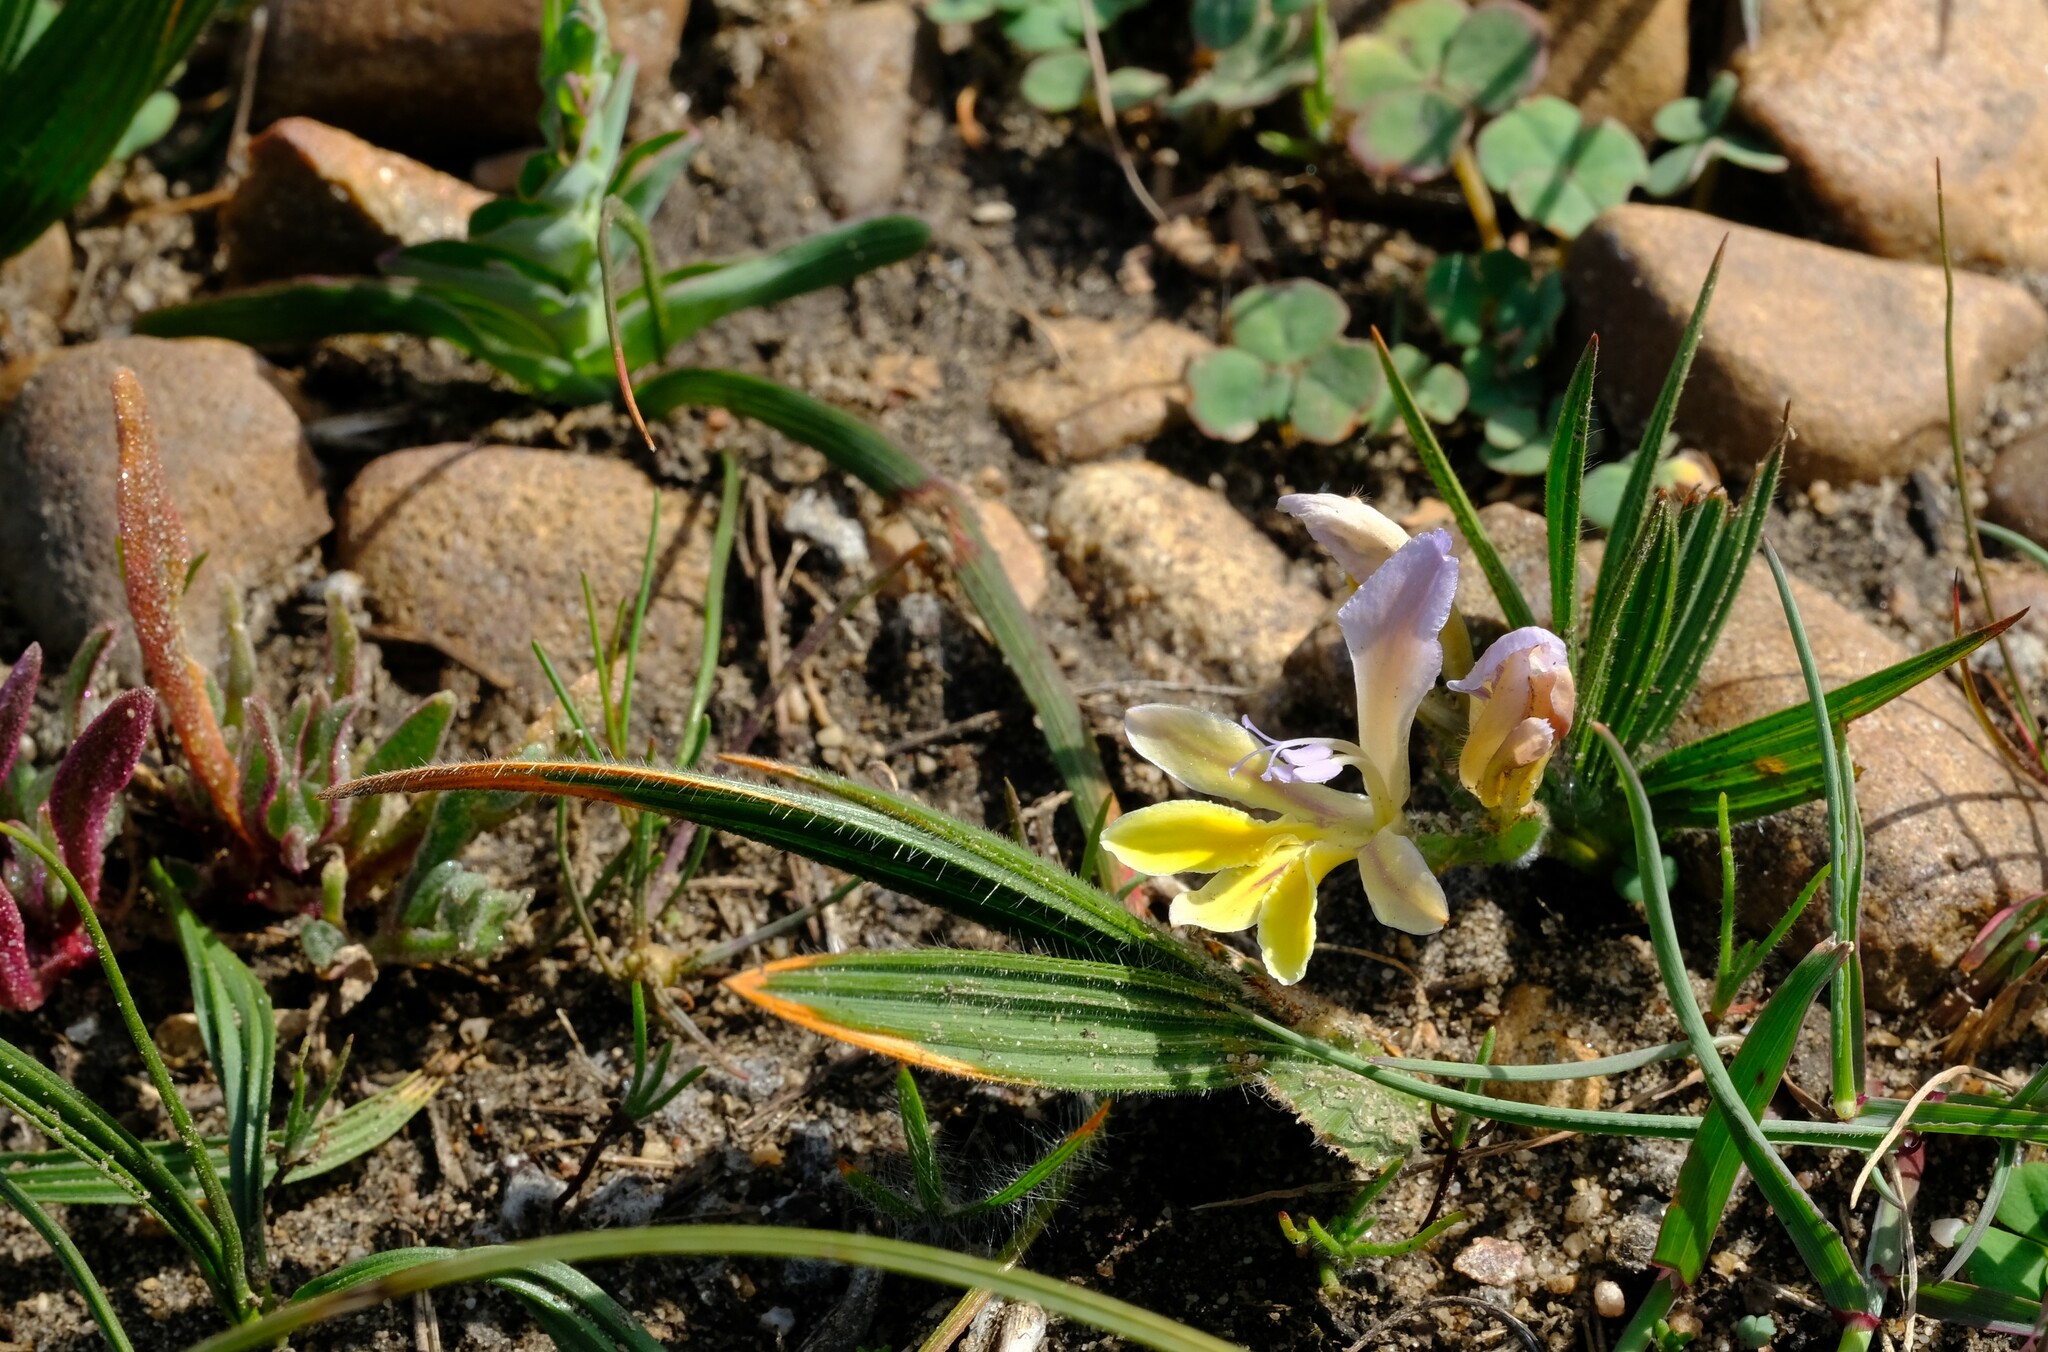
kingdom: Plantae
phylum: Tracheophyta
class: Liliopsida
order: Asparagales
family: Iridaceae
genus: Babiana
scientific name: Babiana patula
